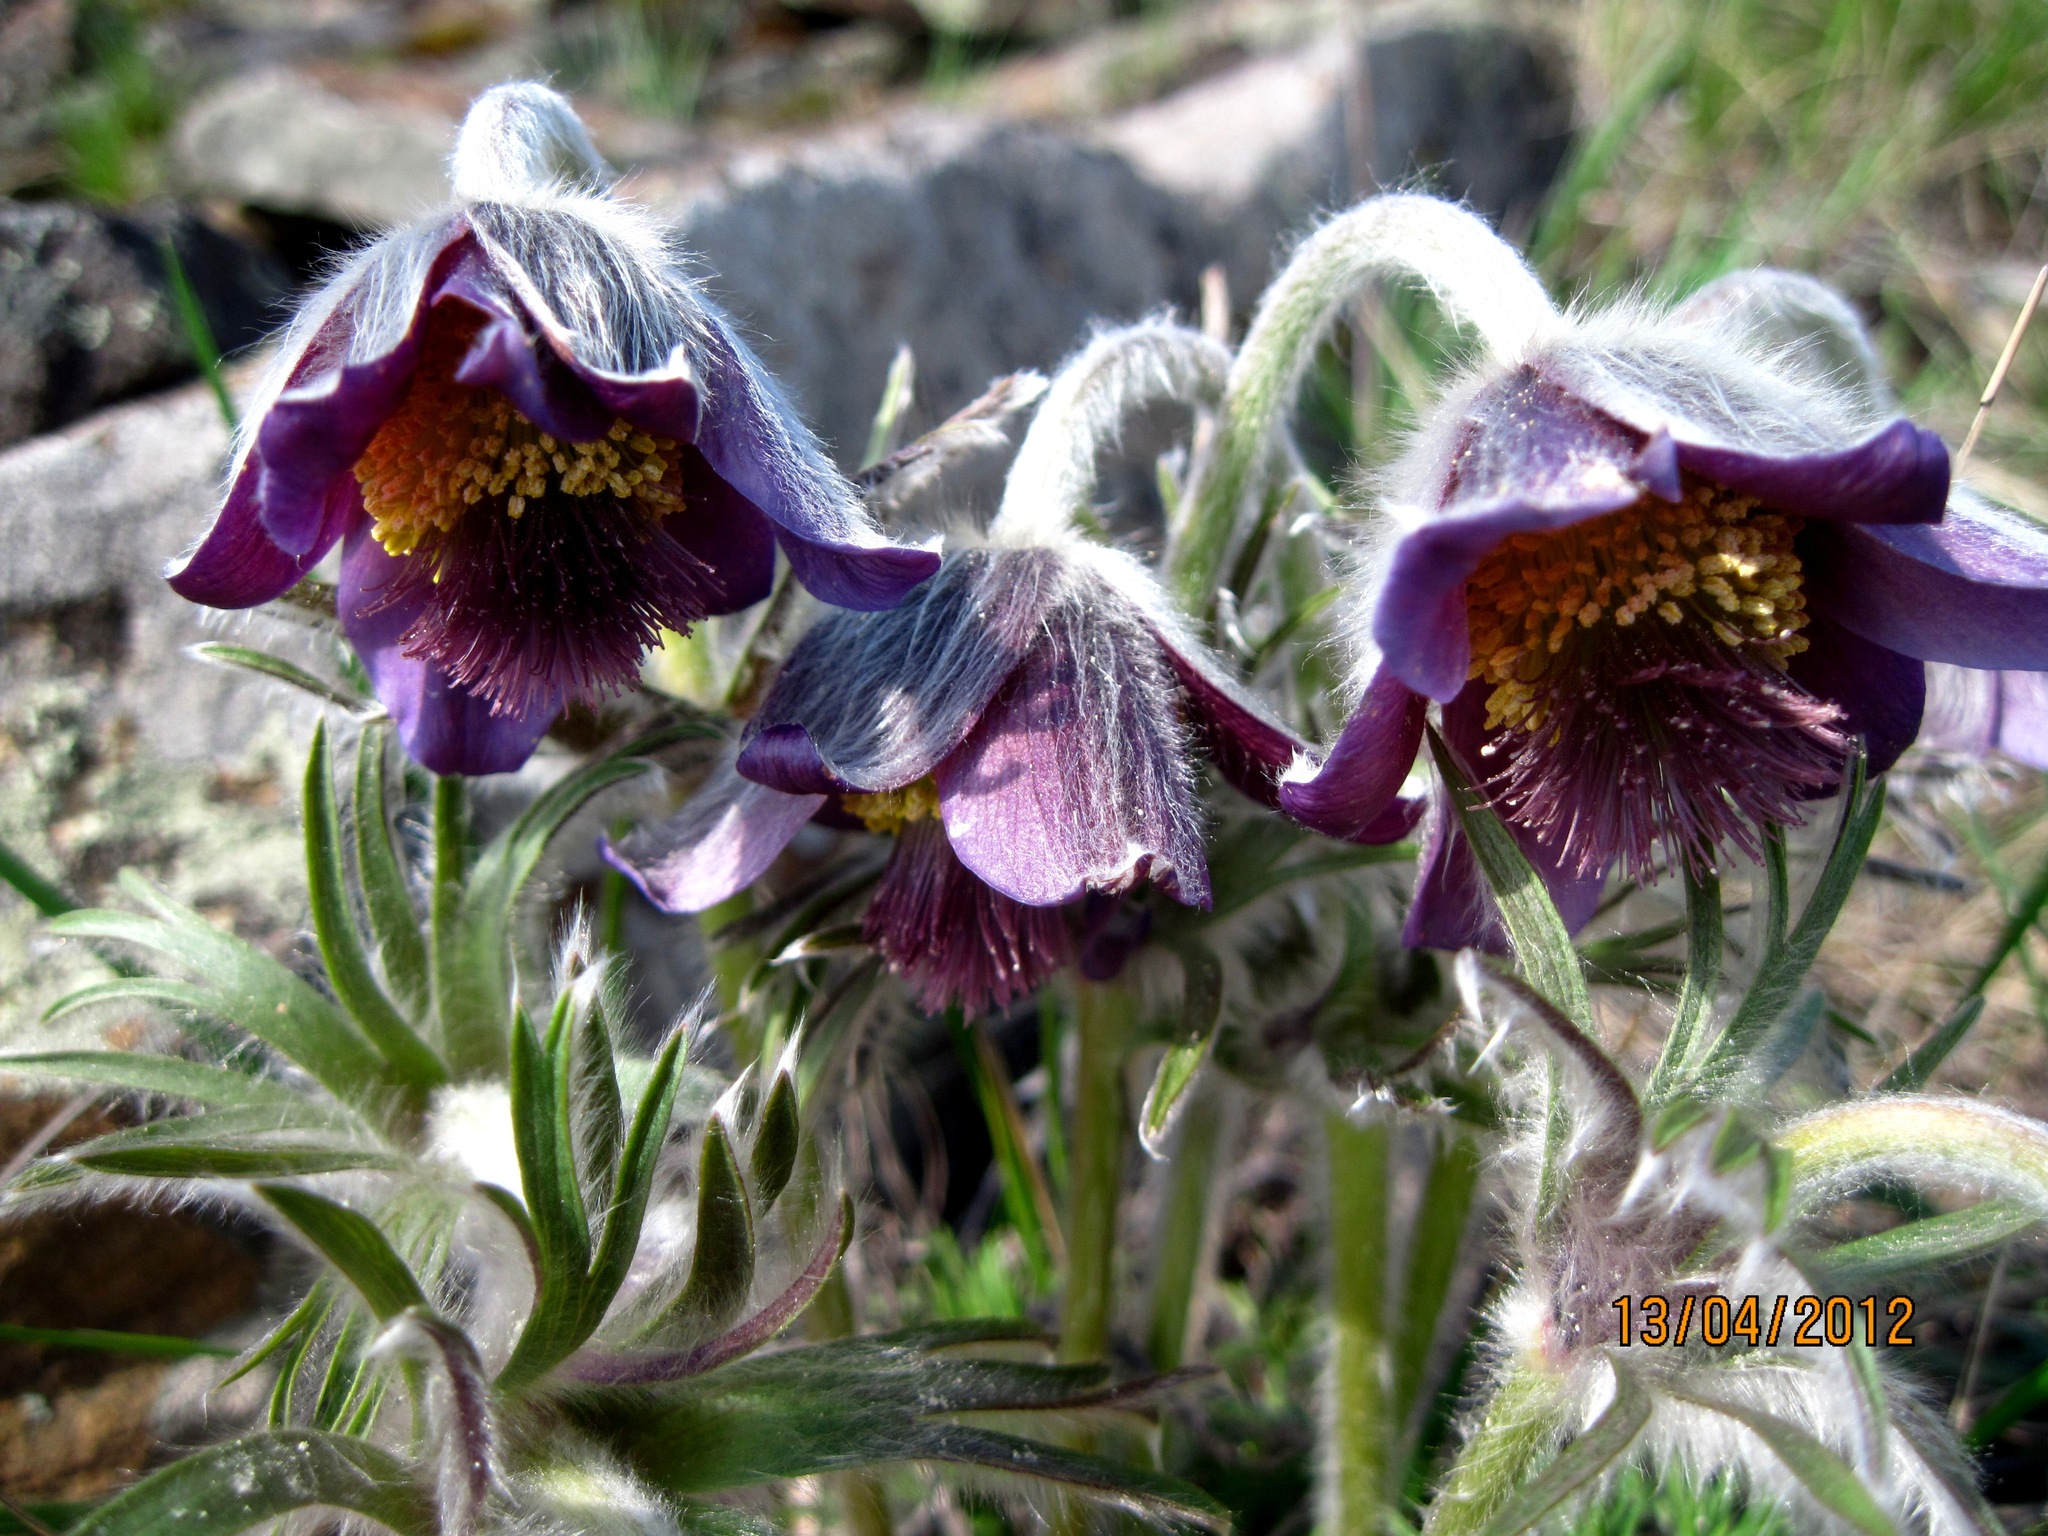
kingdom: Plantae
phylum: Tracheophyta
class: Magnoliopsida
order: Ranunculales
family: Ranunculaceae
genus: Pulsatilla
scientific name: Pulsatilla pratensis
